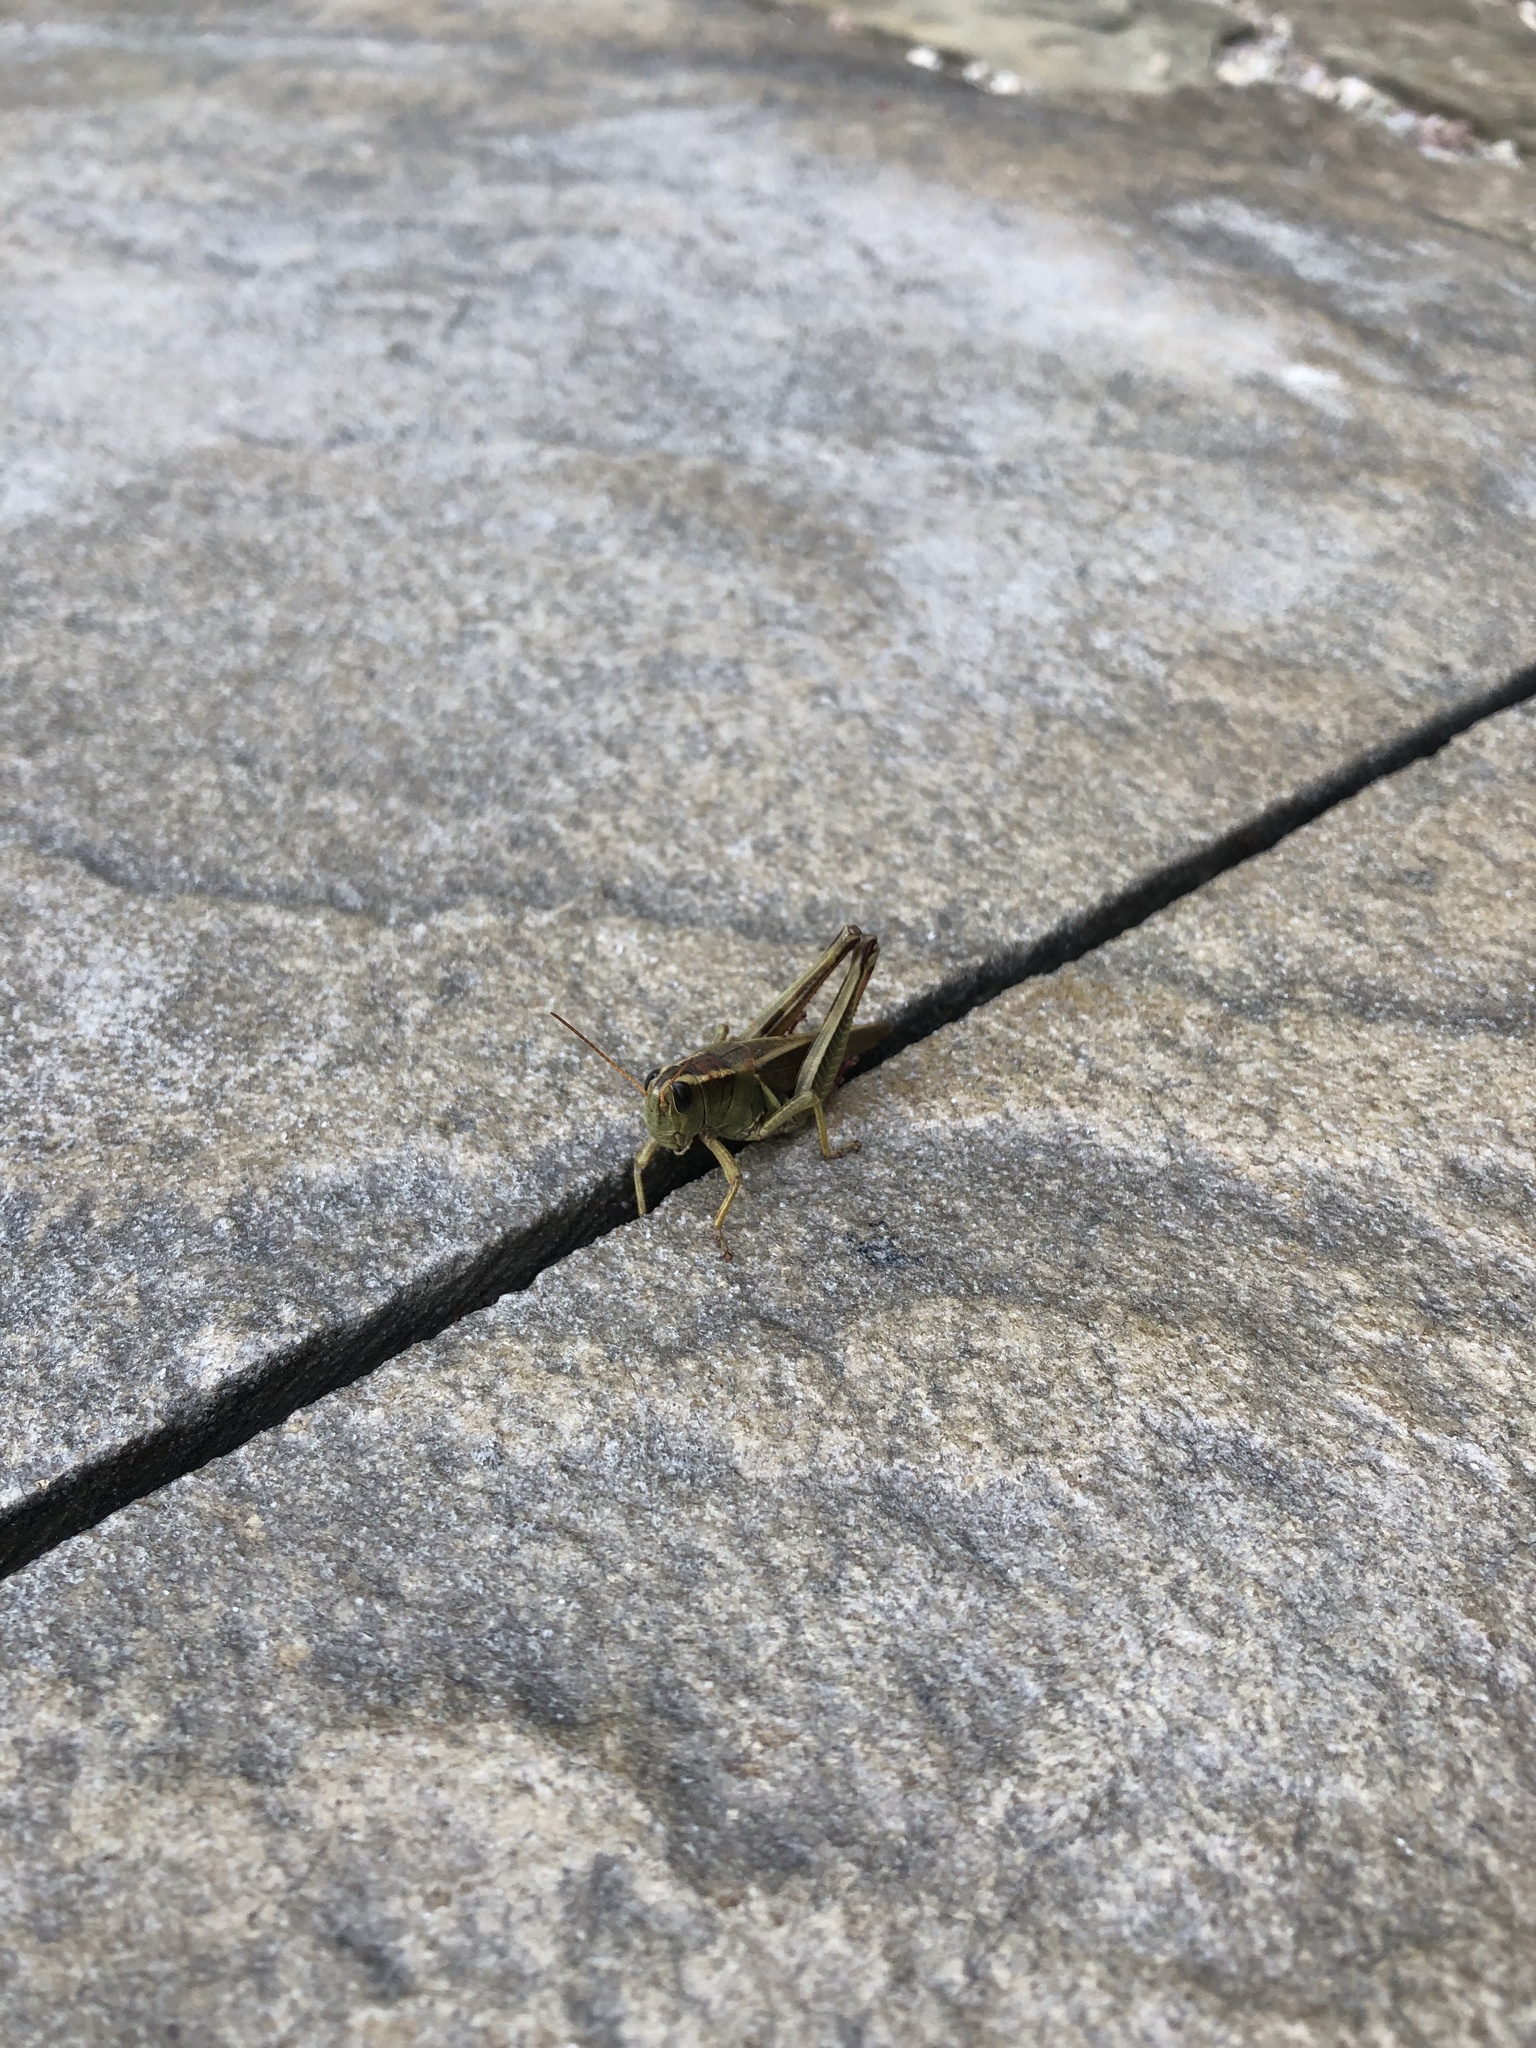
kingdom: Animalia
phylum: Arthropoda
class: Insecta
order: Orthoptera
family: Acrididae
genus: Melanoplus
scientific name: Melanoplus bivittatus
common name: Two-striped grasshopper
